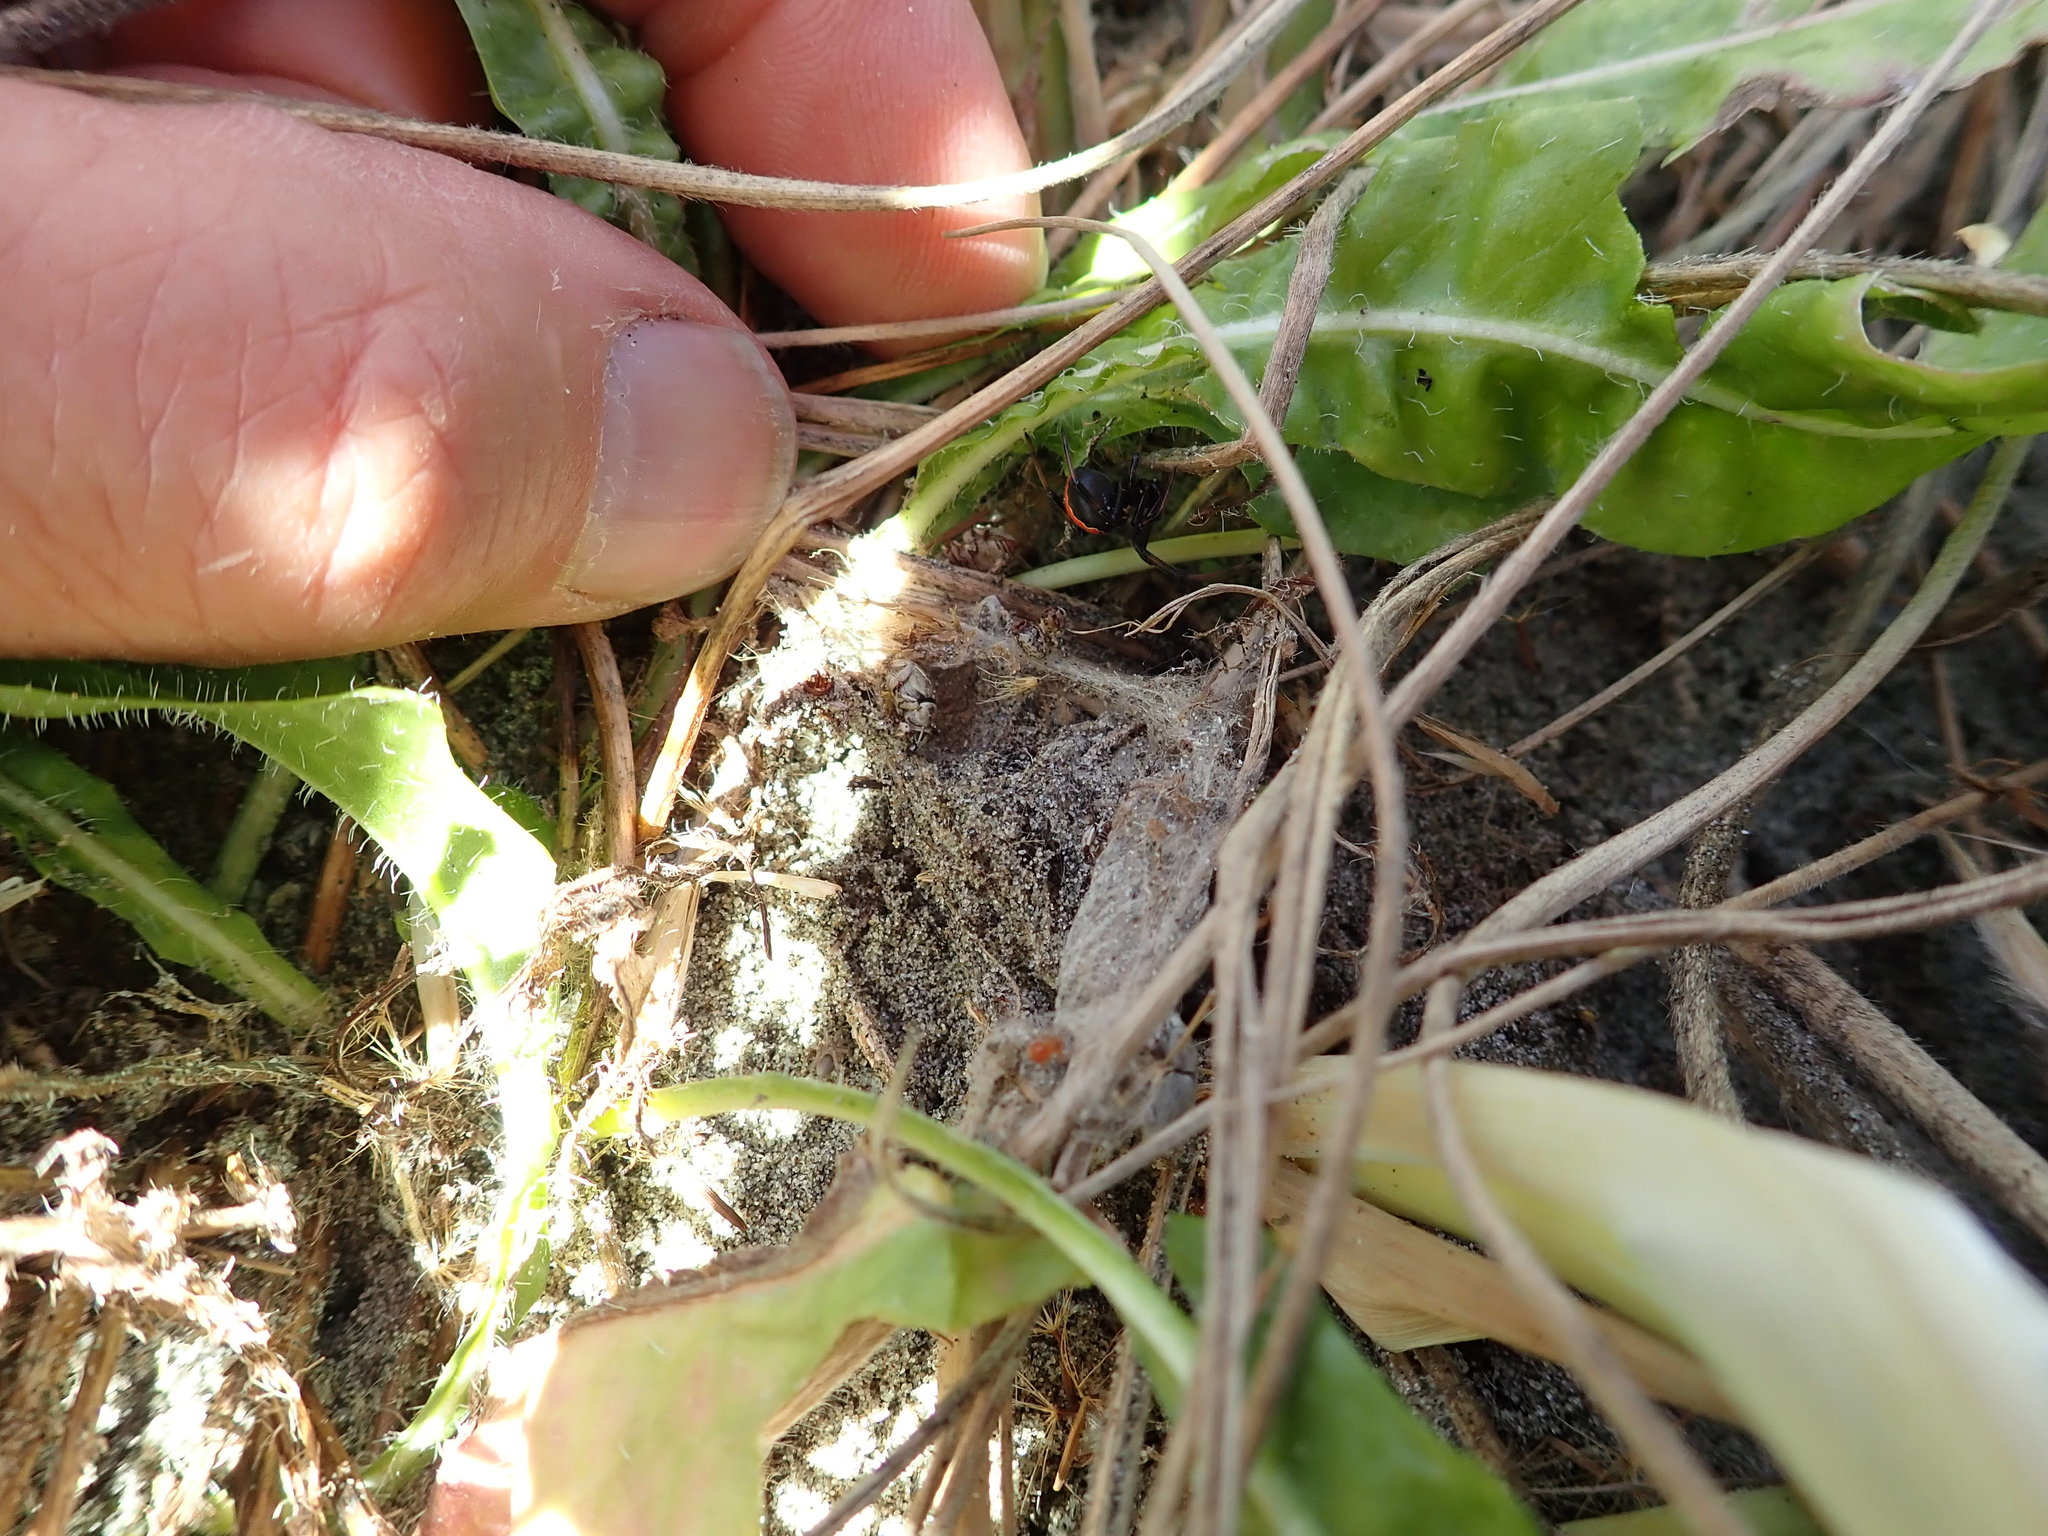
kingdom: Animalia
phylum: Arthropoda
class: Arachnida
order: Araneae
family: Theridiidae
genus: Latrodectus
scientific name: Latrodectus katipo
